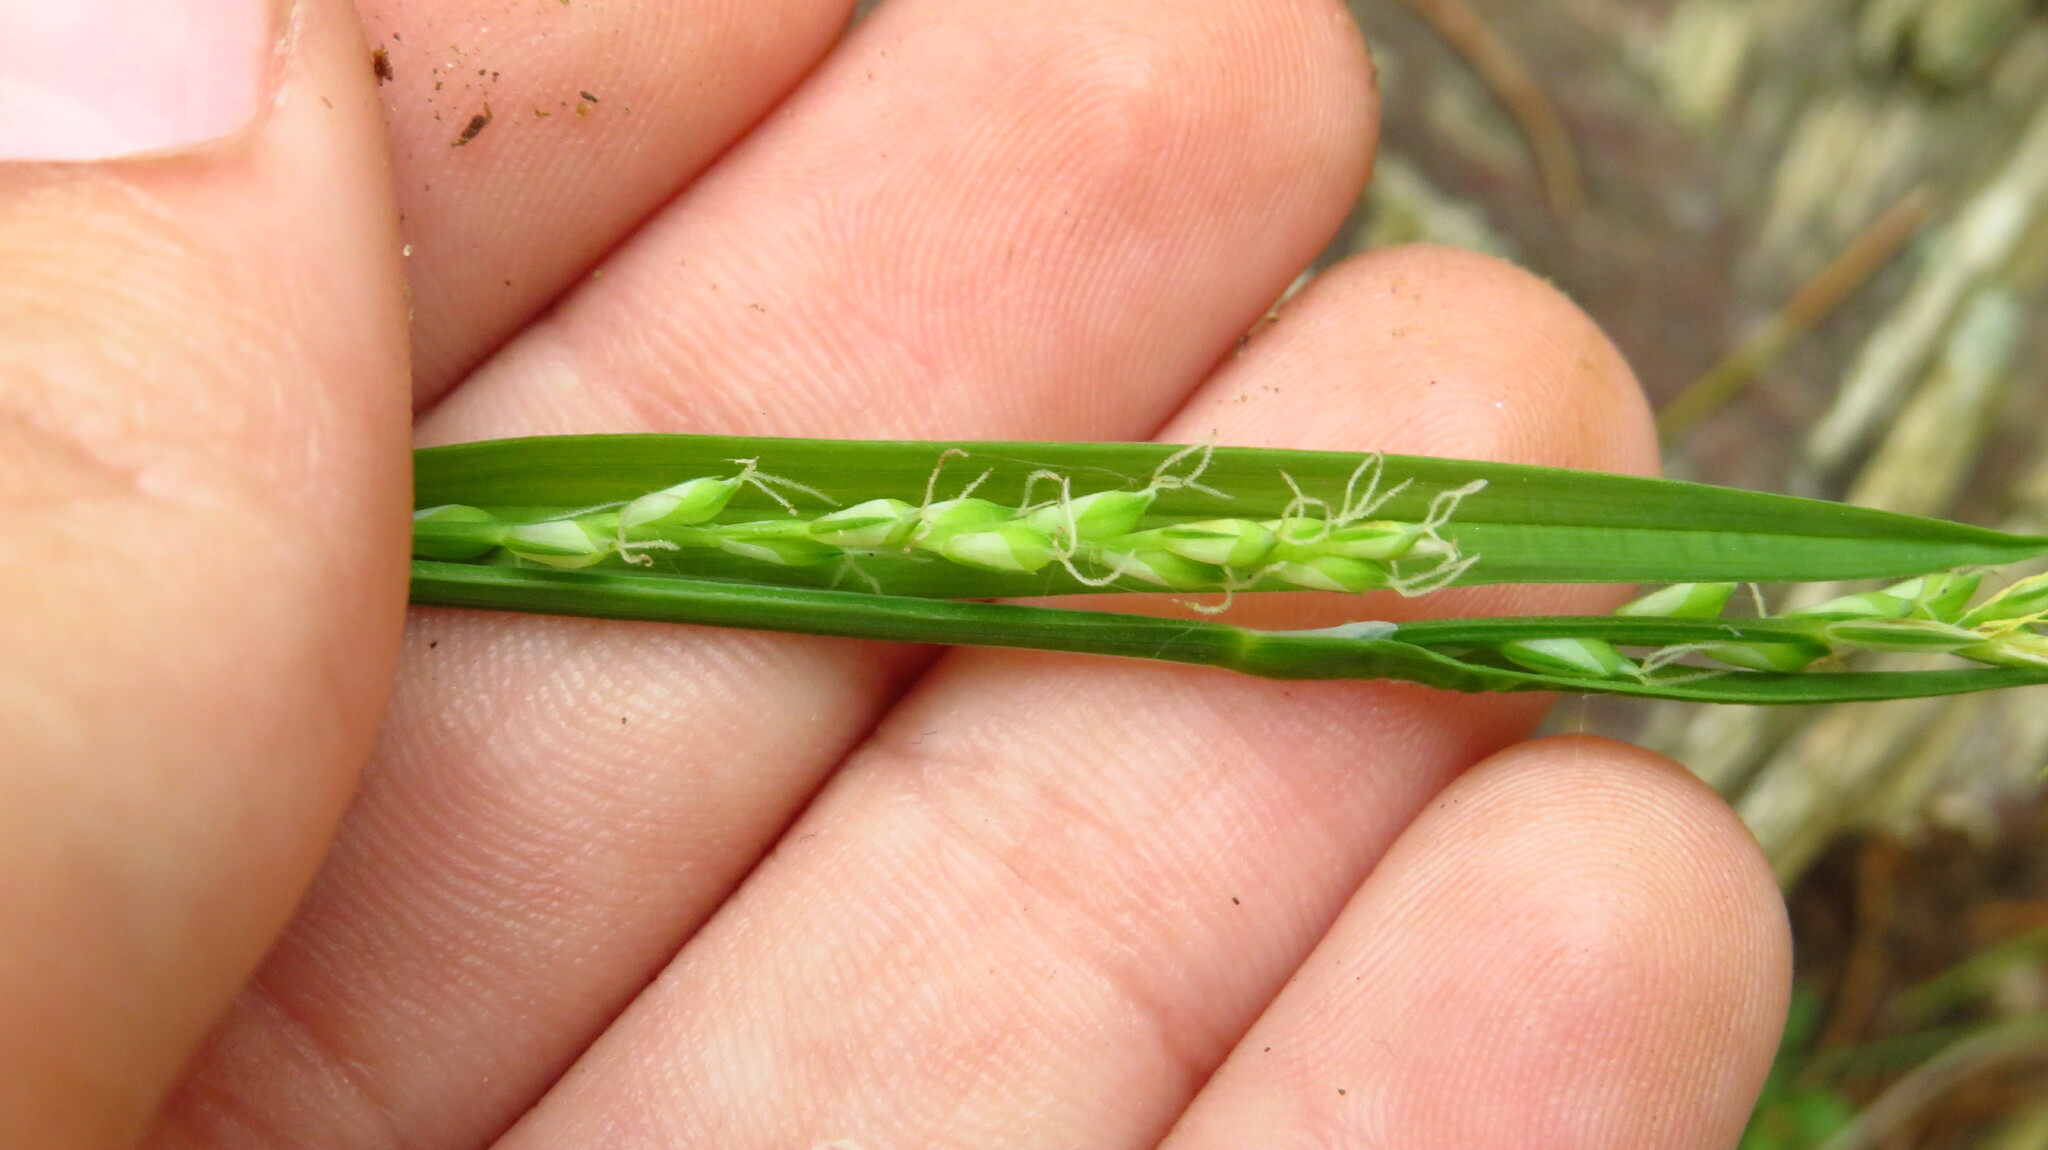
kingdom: Plantae
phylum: Tracheophyta
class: Liliopsida
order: Poales
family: Cyperaceae
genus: Carex
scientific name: Carex laxiflora
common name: Beech wood sedge
